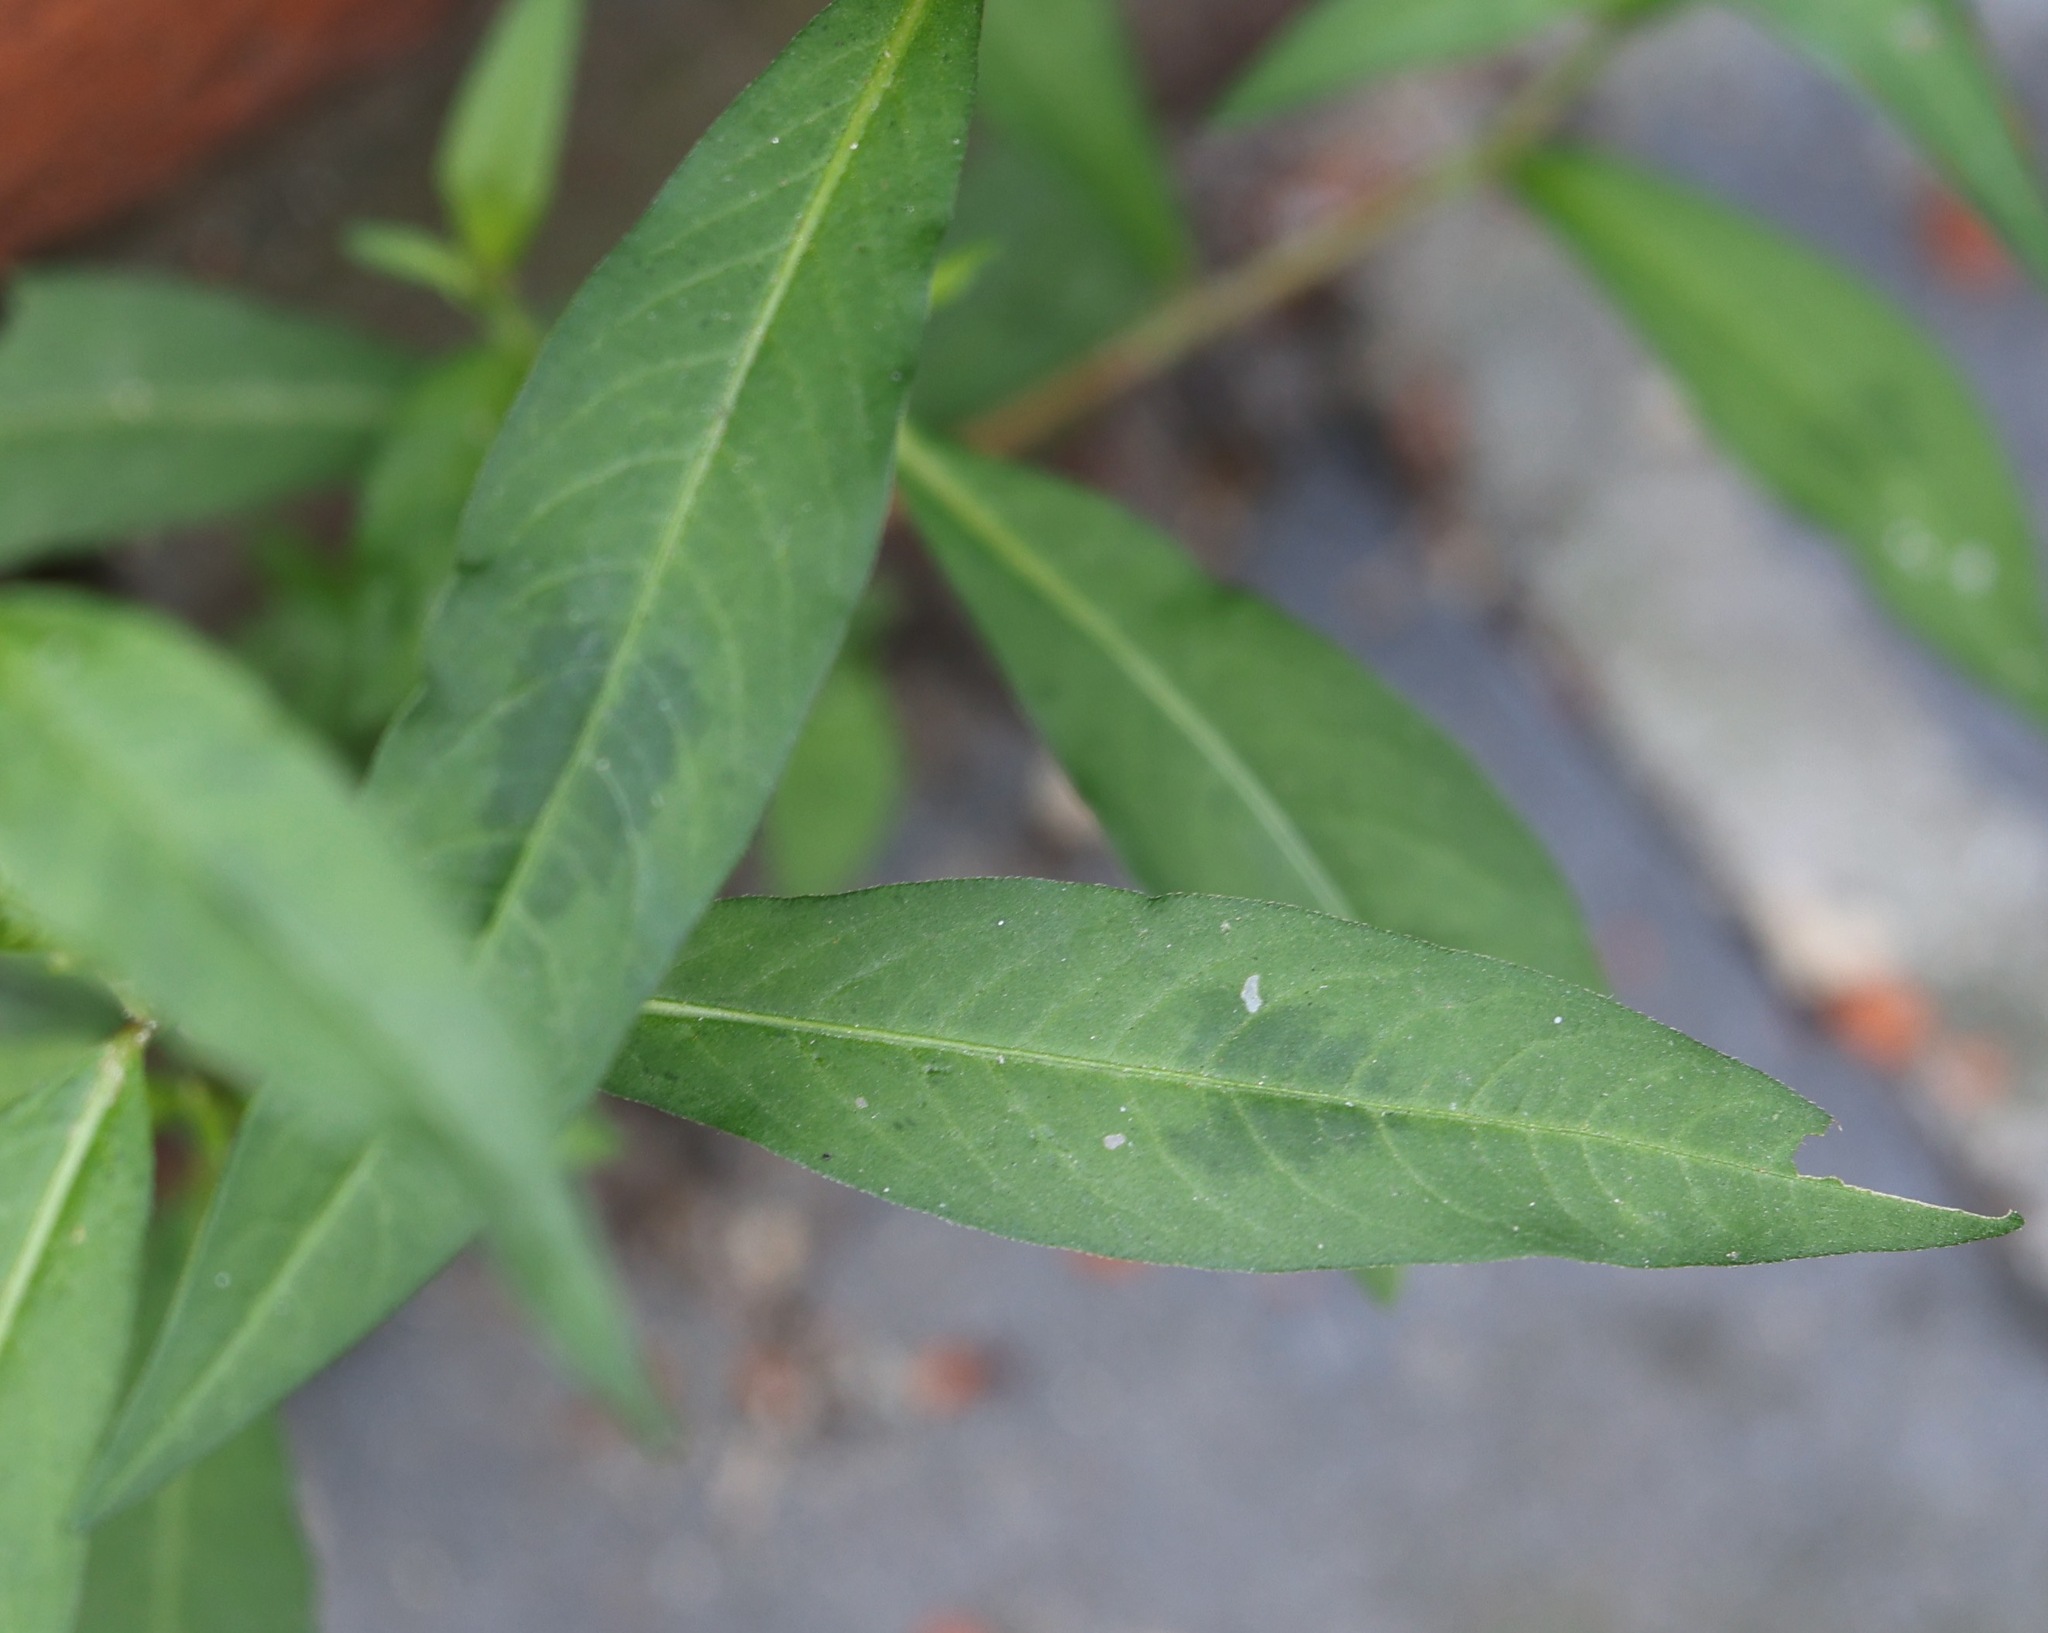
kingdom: Plantae
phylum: Tracheophyta
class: Magnoliopsida
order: Caryophyllales
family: Polygonaceae
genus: Persicaria
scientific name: Persicaria maculosa
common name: Redshank
